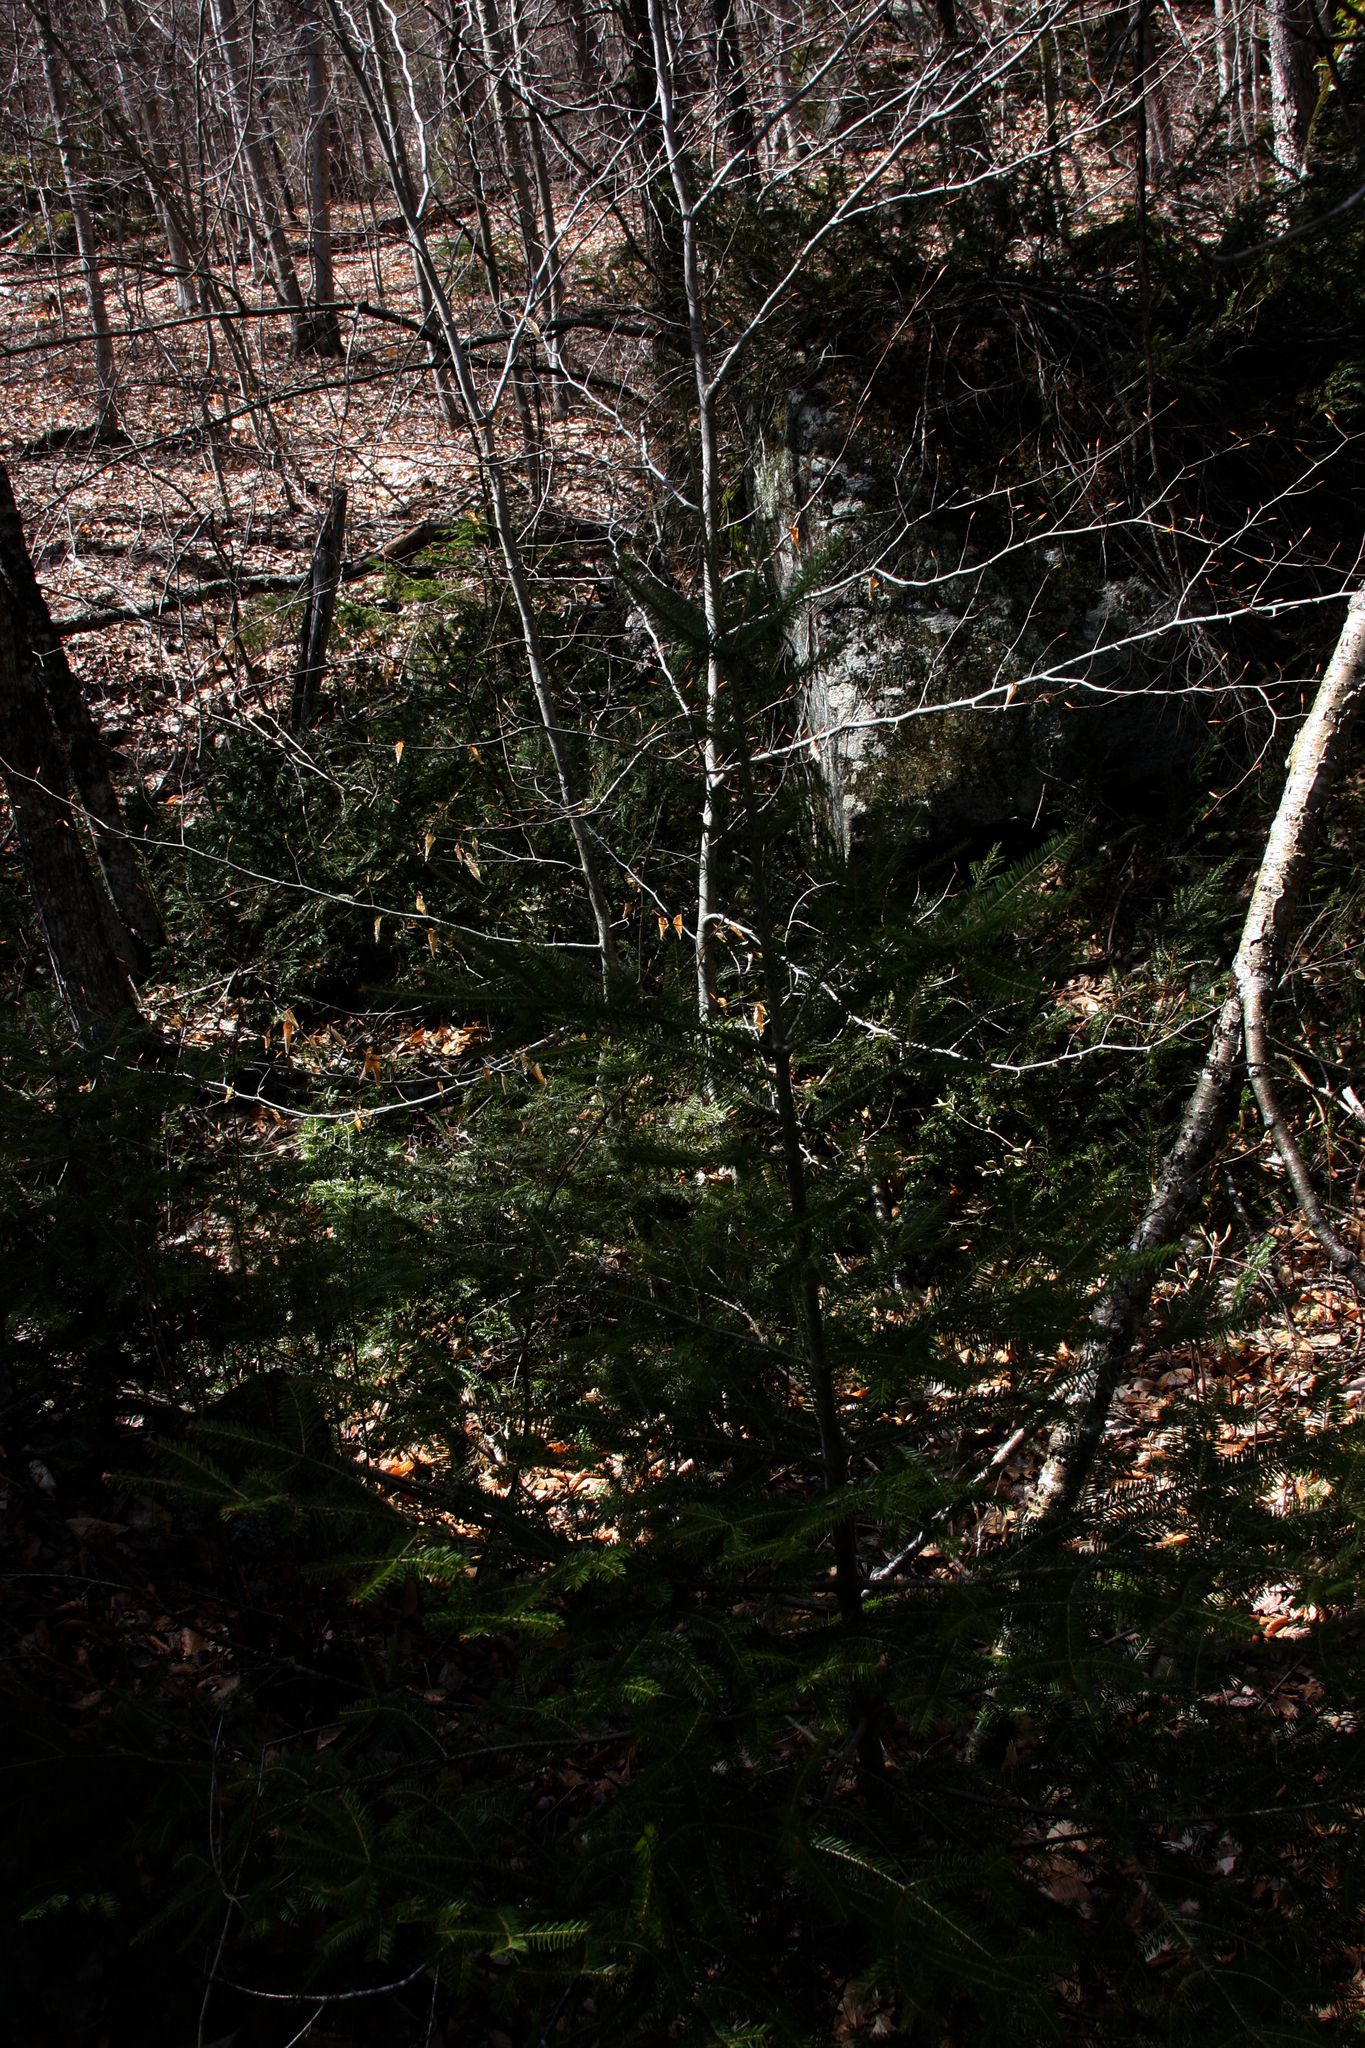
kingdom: Plantae
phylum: Tracheophyta
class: Pinopsida
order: Pinales
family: Pinaceae
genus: Abies
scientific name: Abies balsamea
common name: Balsam fir
